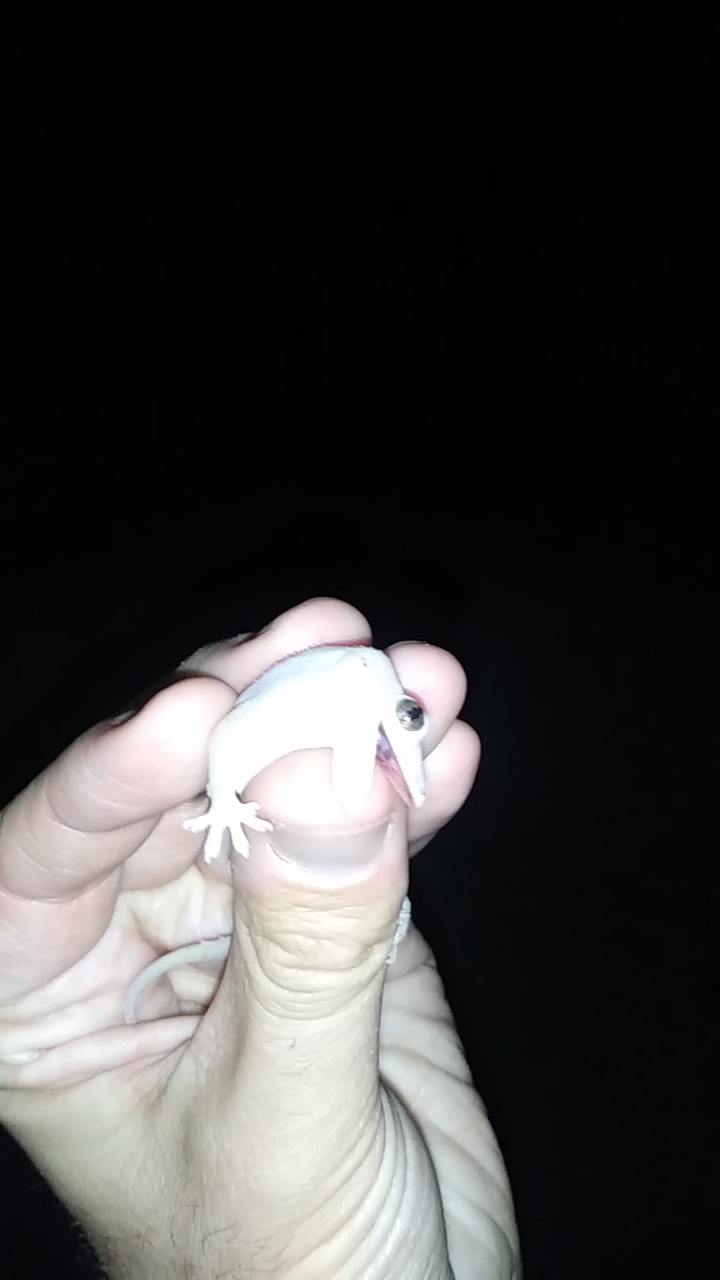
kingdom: Animalia
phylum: Chordata
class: Squamata
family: Gekkonidae
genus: Hemidactylus
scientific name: Hemidactylus mabouia
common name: House gecko
